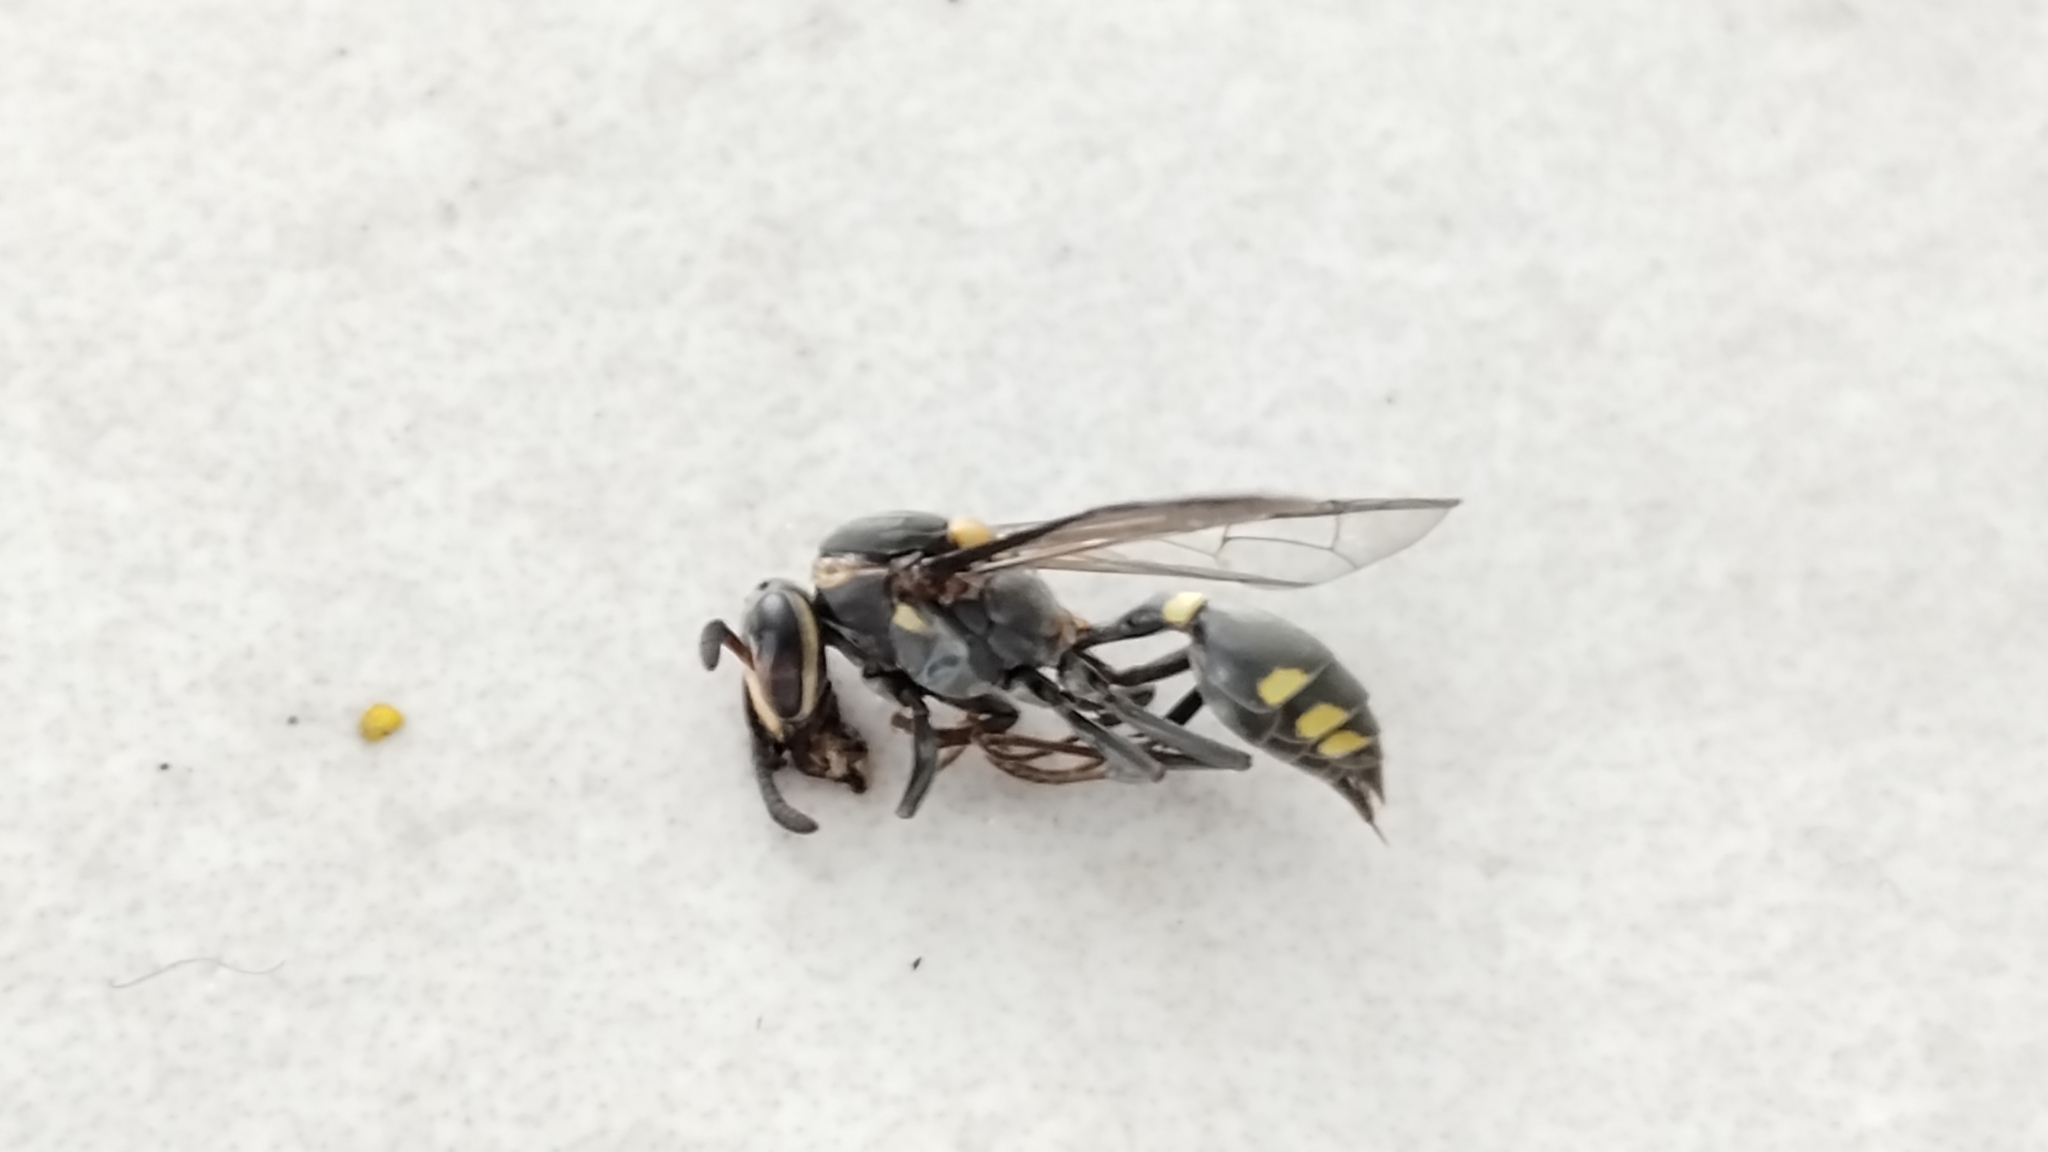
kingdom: Animalia
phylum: Arthropoda
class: Insecta
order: Hymenoptera
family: Eumenidae
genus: Polybia
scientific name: Polybia ruficeps
